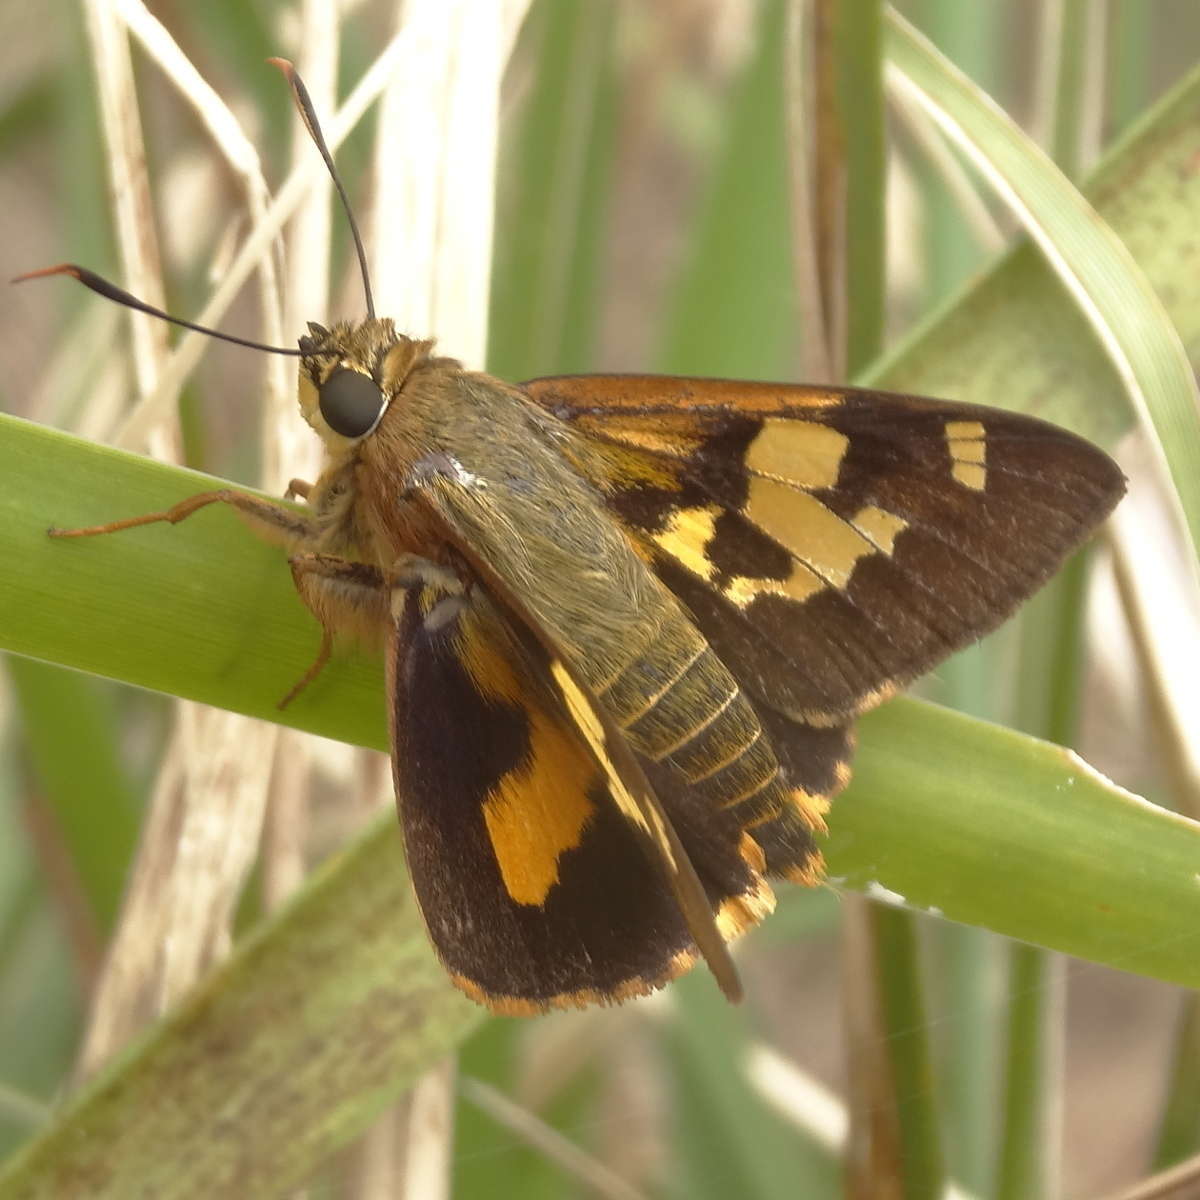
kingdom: Animalia
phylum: Arthropoda
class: Insecta
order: Lepidoptera
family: Hesperiidae
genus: Trapezites
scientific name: Trapezites symmomus
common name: Splendid ochre
